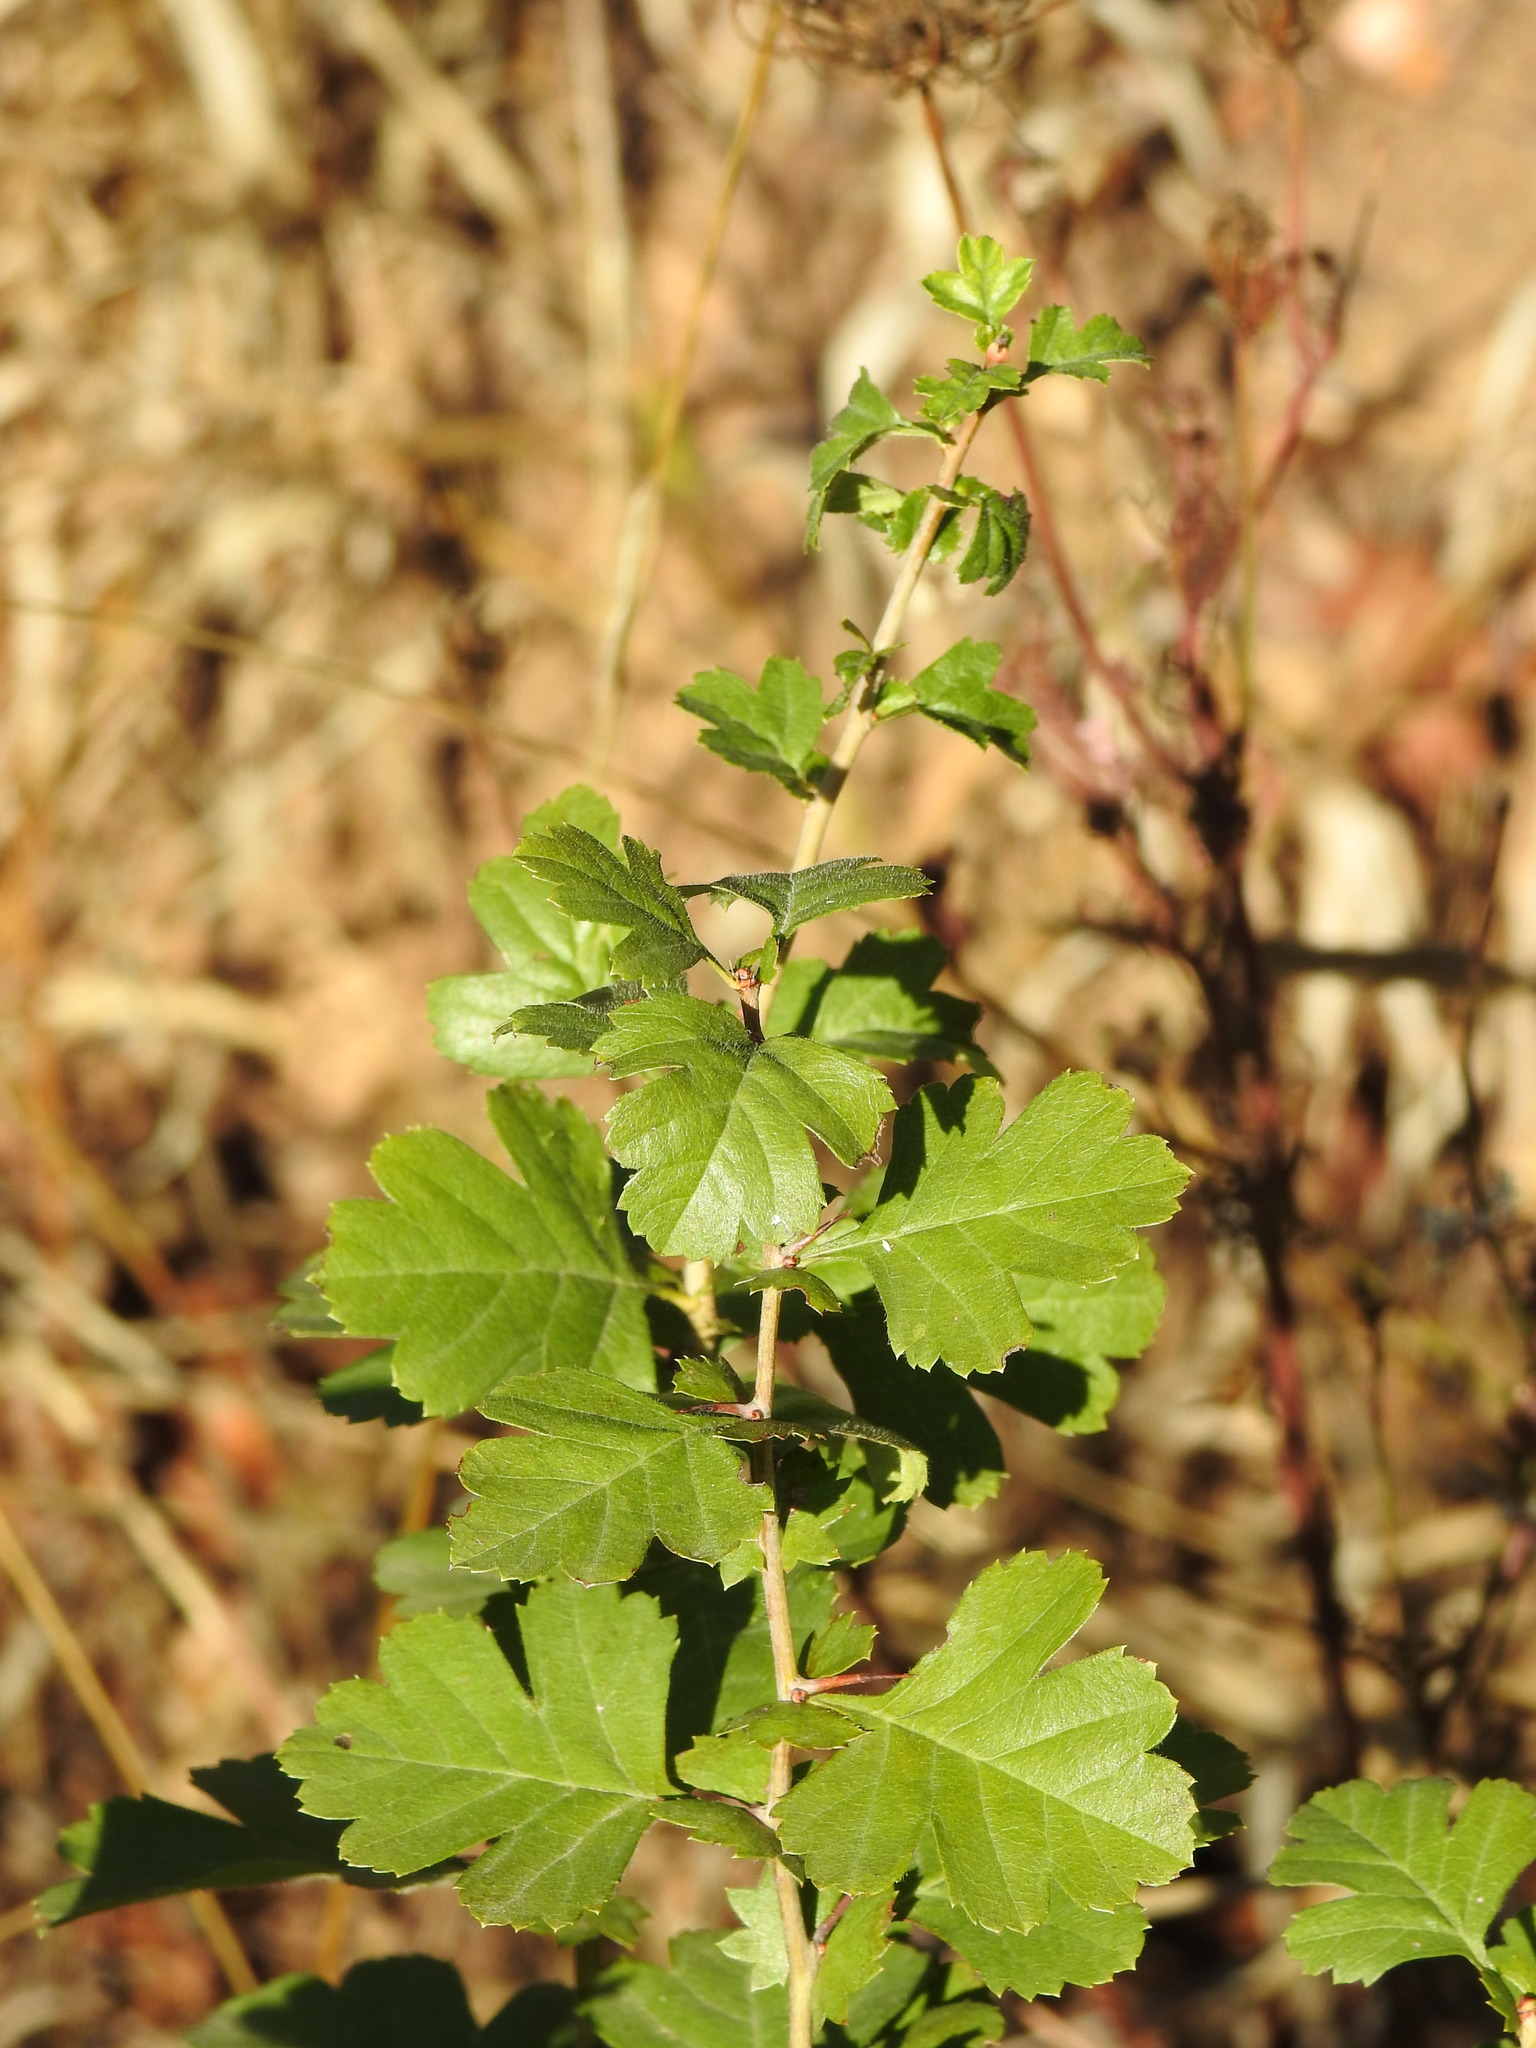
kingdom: Plantae
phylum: Tracheophyta
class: Magnoliopsida
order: Rosales
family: Rosaceae
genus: Crataegus
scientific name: Crataegus monogyna
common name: Hawthorn
